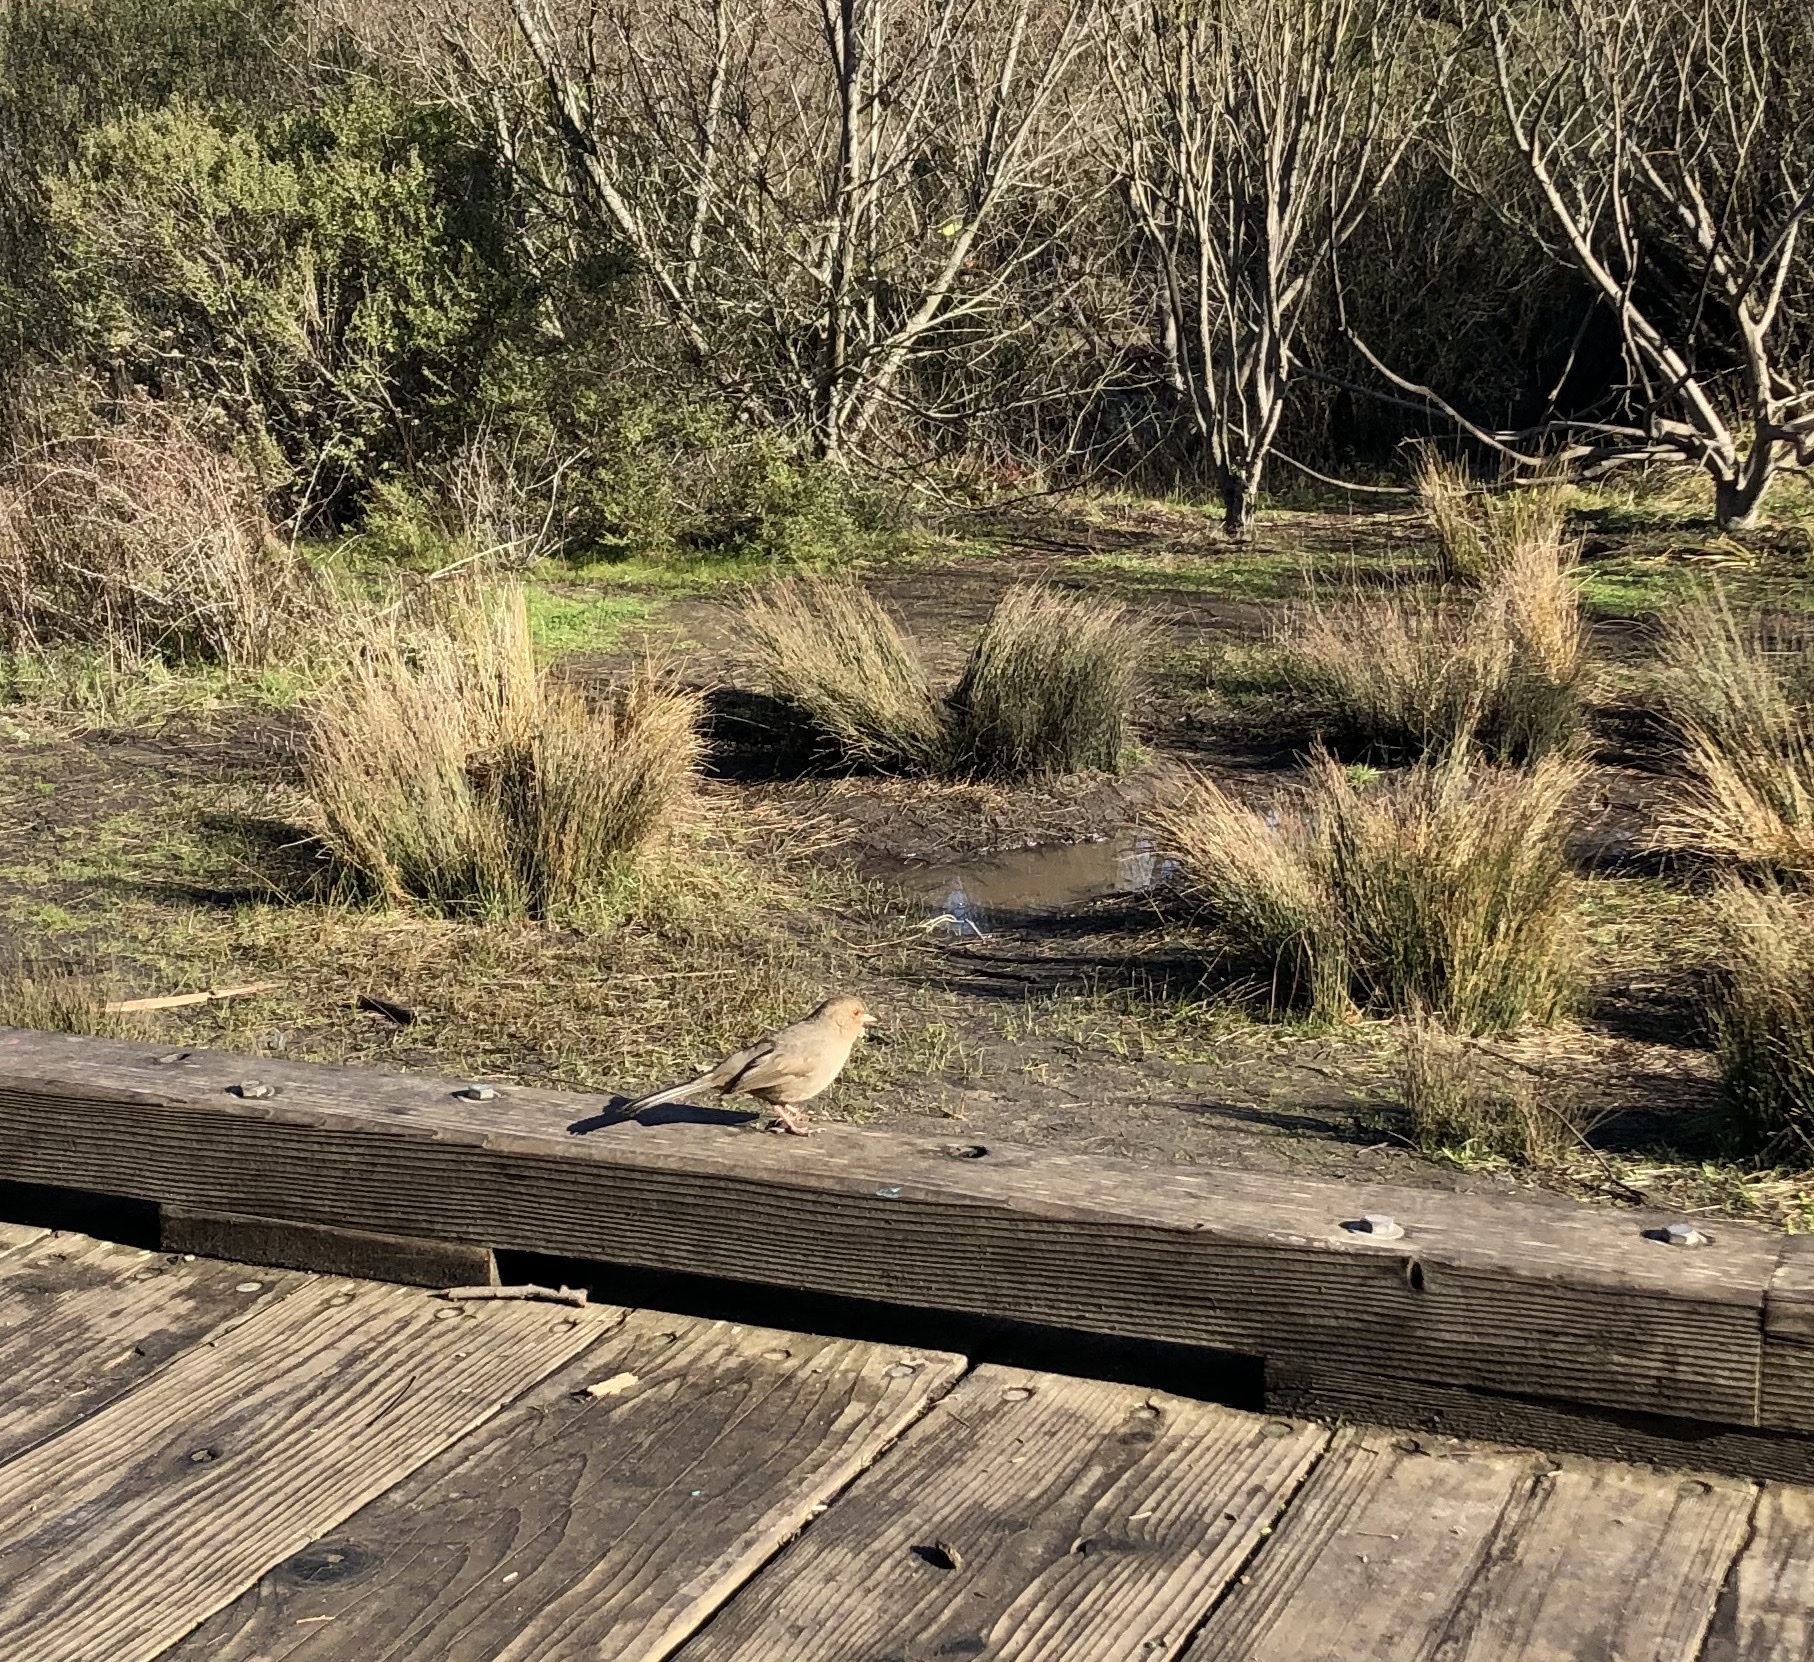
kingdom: Animalia
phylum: Chordata
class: Aves
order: Passeriformes
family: Passerellidae
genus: Melozone
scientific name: Melozone crissalis
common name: California towhee
